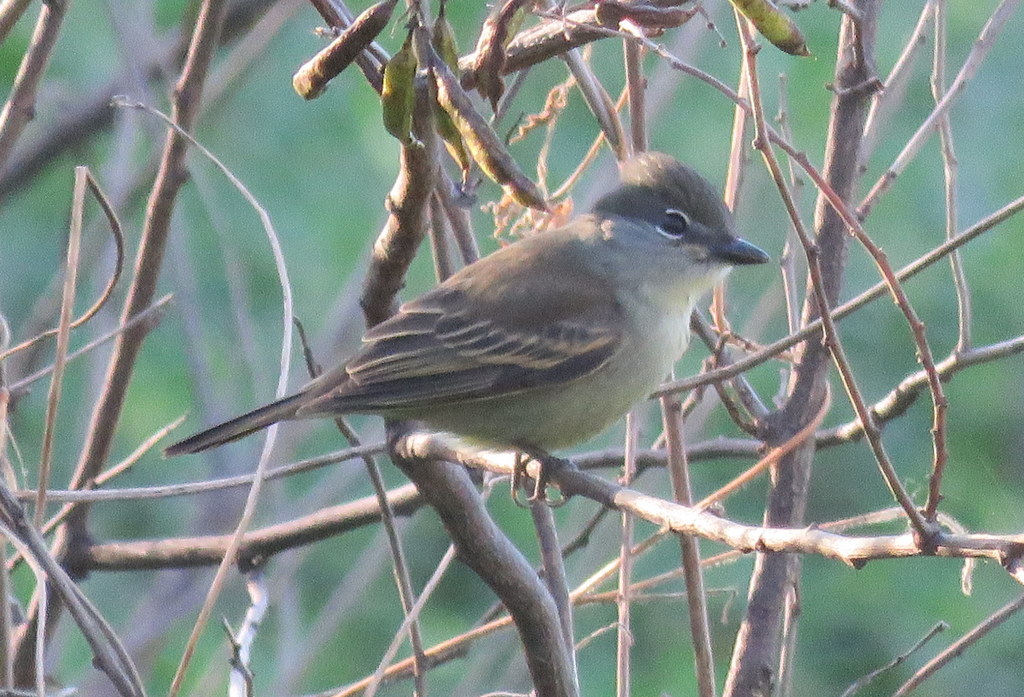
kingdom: Animalia
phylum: Chordata
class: Aves
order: Passeriformes
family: Cotingidae
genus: Pachyramphus
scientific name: Pachyramphus polychopterus
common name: White-winged becard
